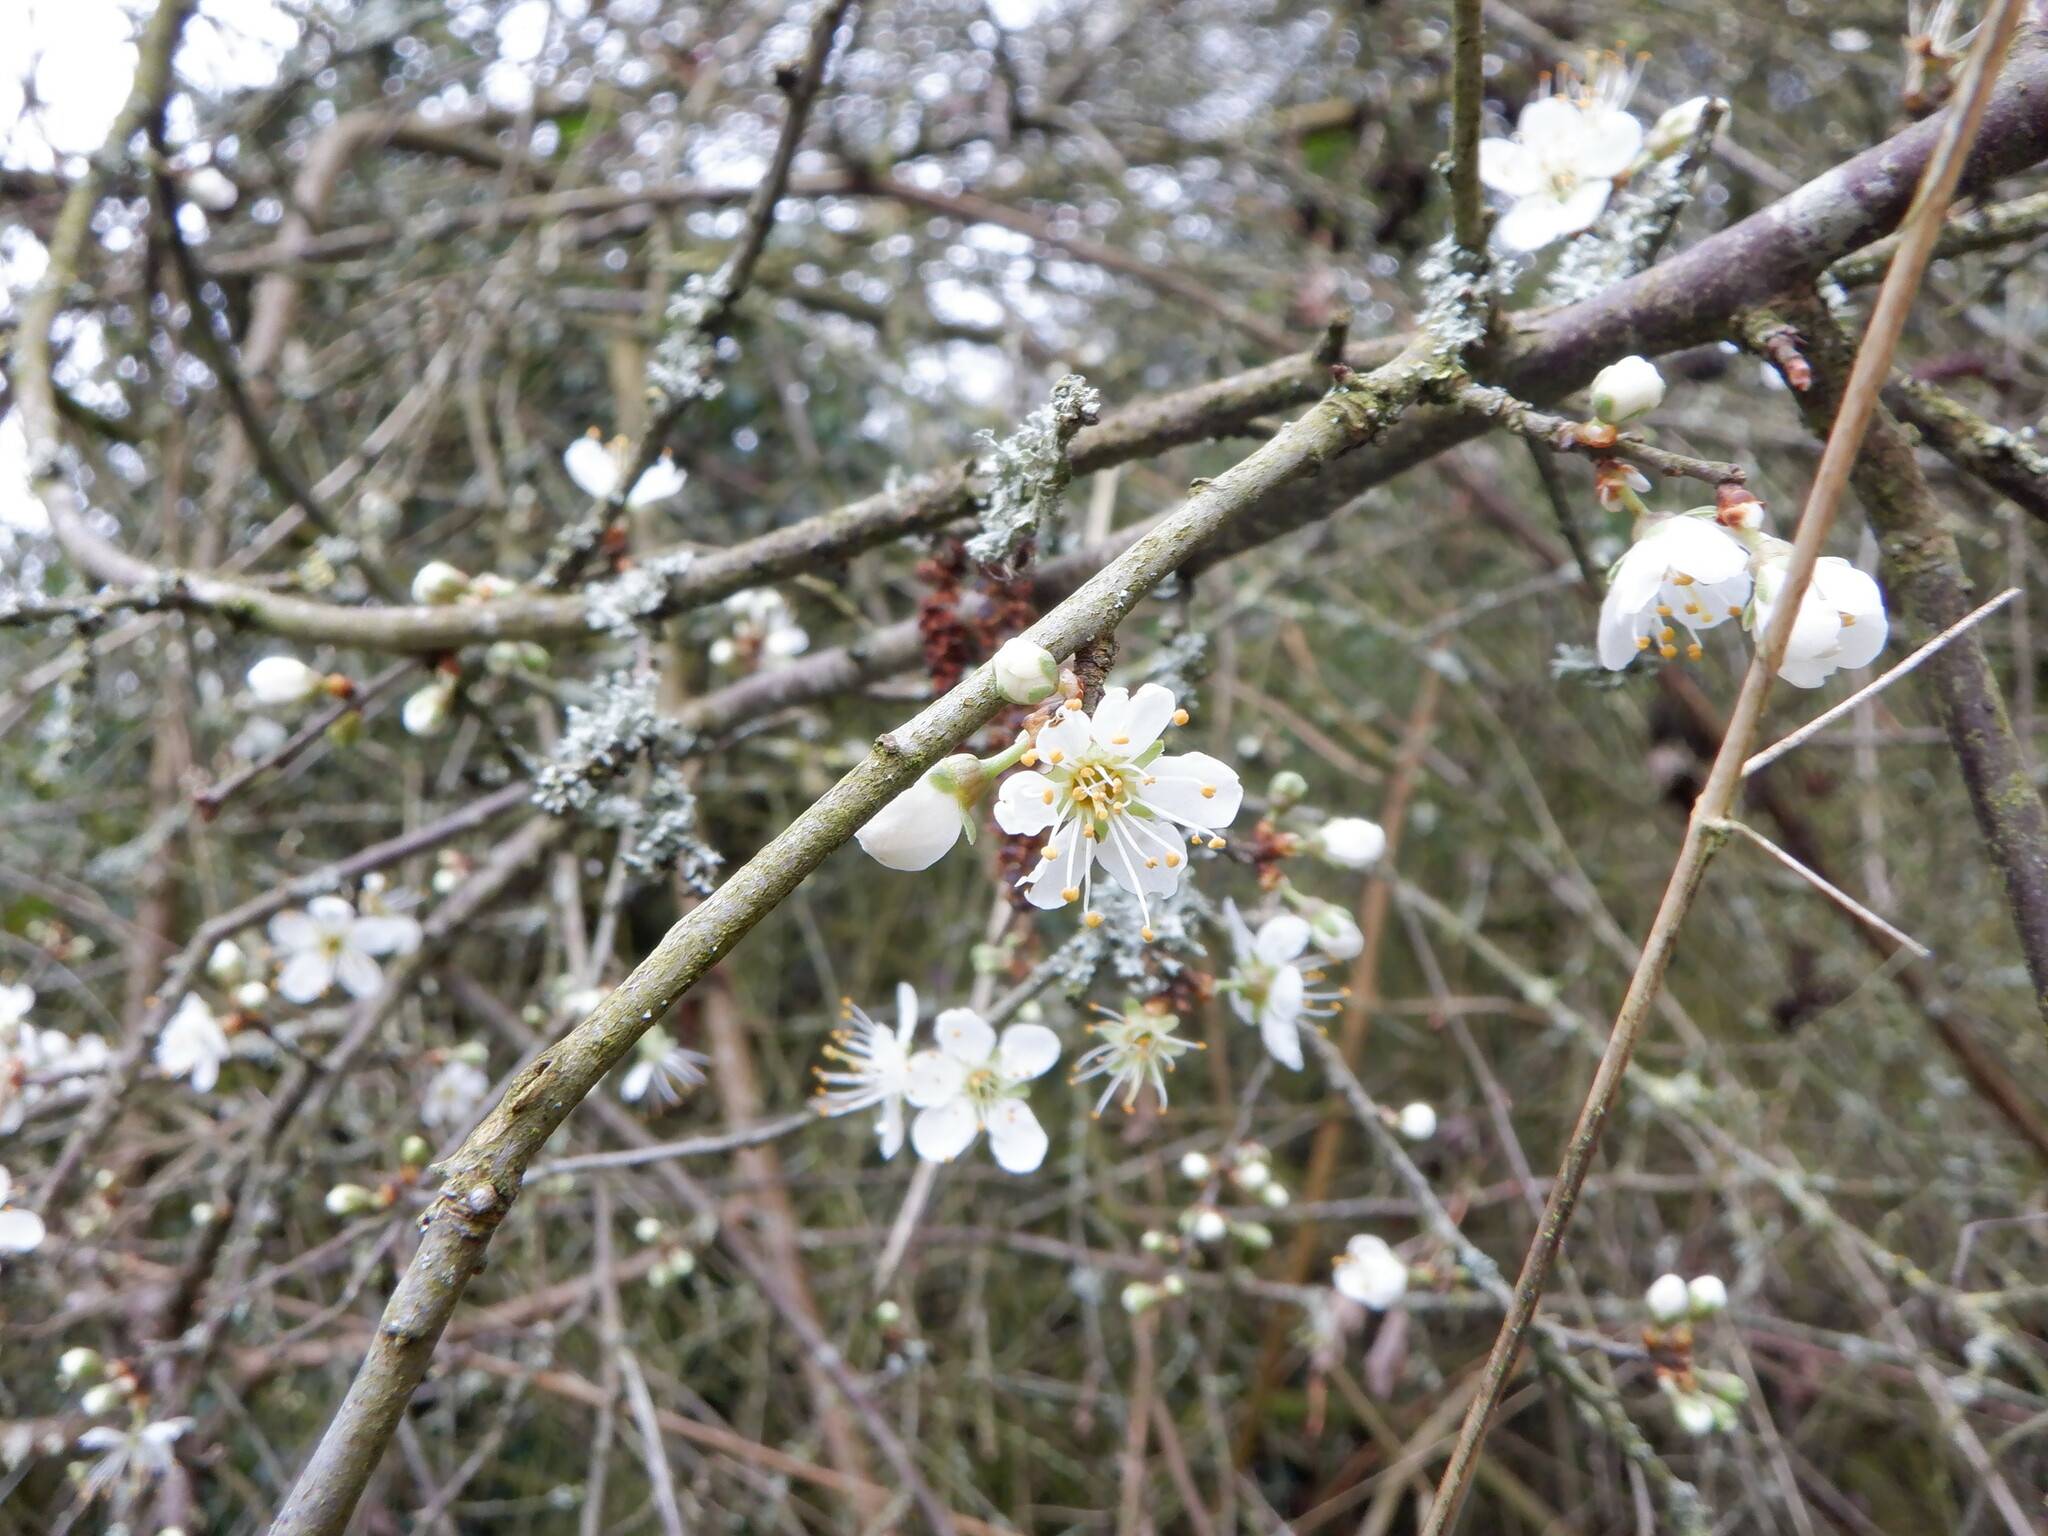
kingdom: Plantae
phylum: Tracheophyta
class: Magnoliopsida
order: Rosales
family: Rosaceae
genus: Prunus
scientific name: Prunus spinosa
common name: Blackthorn
